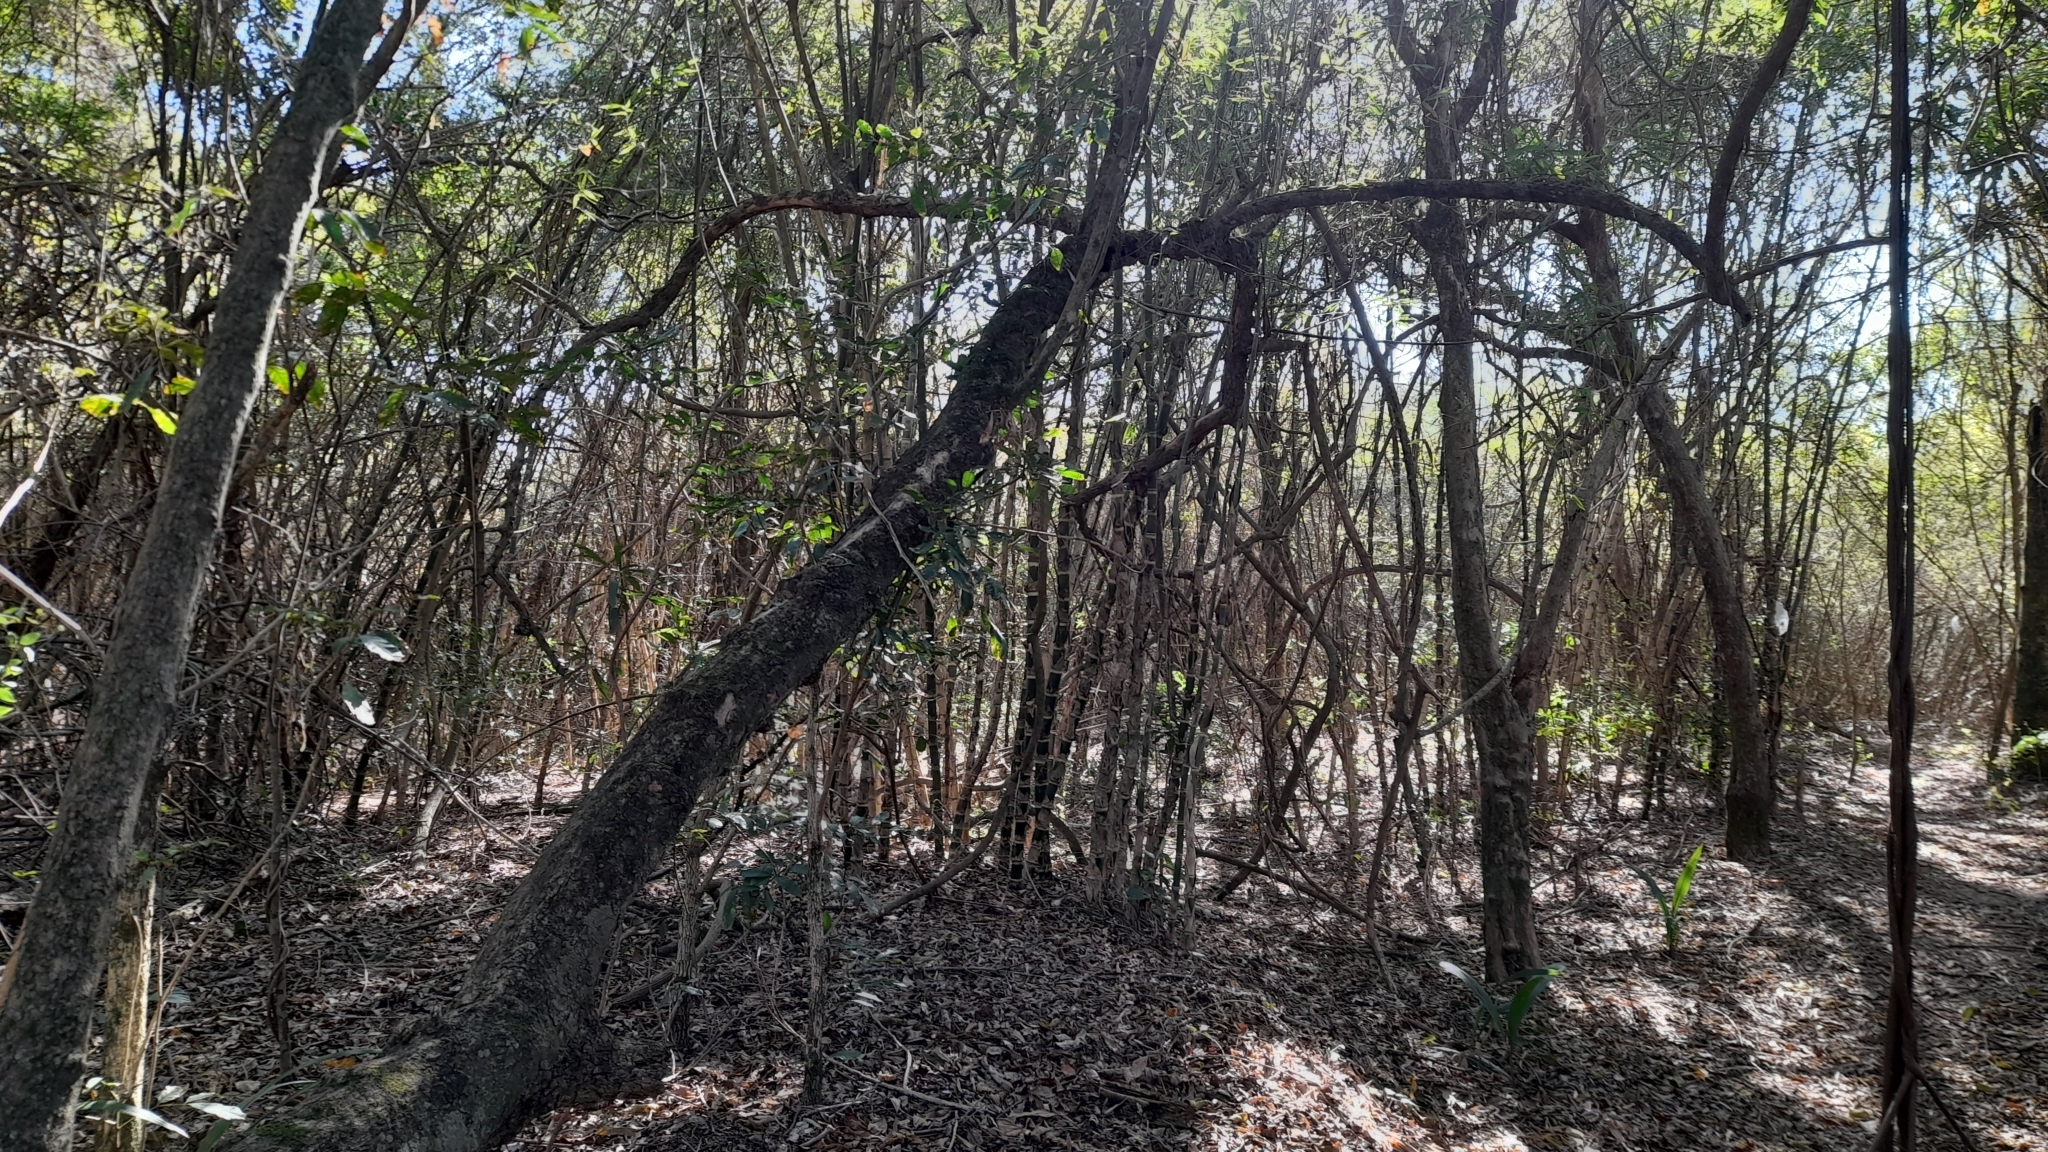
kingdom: Plantae
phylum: Tracheophyta
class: Liliopsida
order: Poales
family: Poaceae
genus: Guadua
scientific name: Guadua paraguayana
